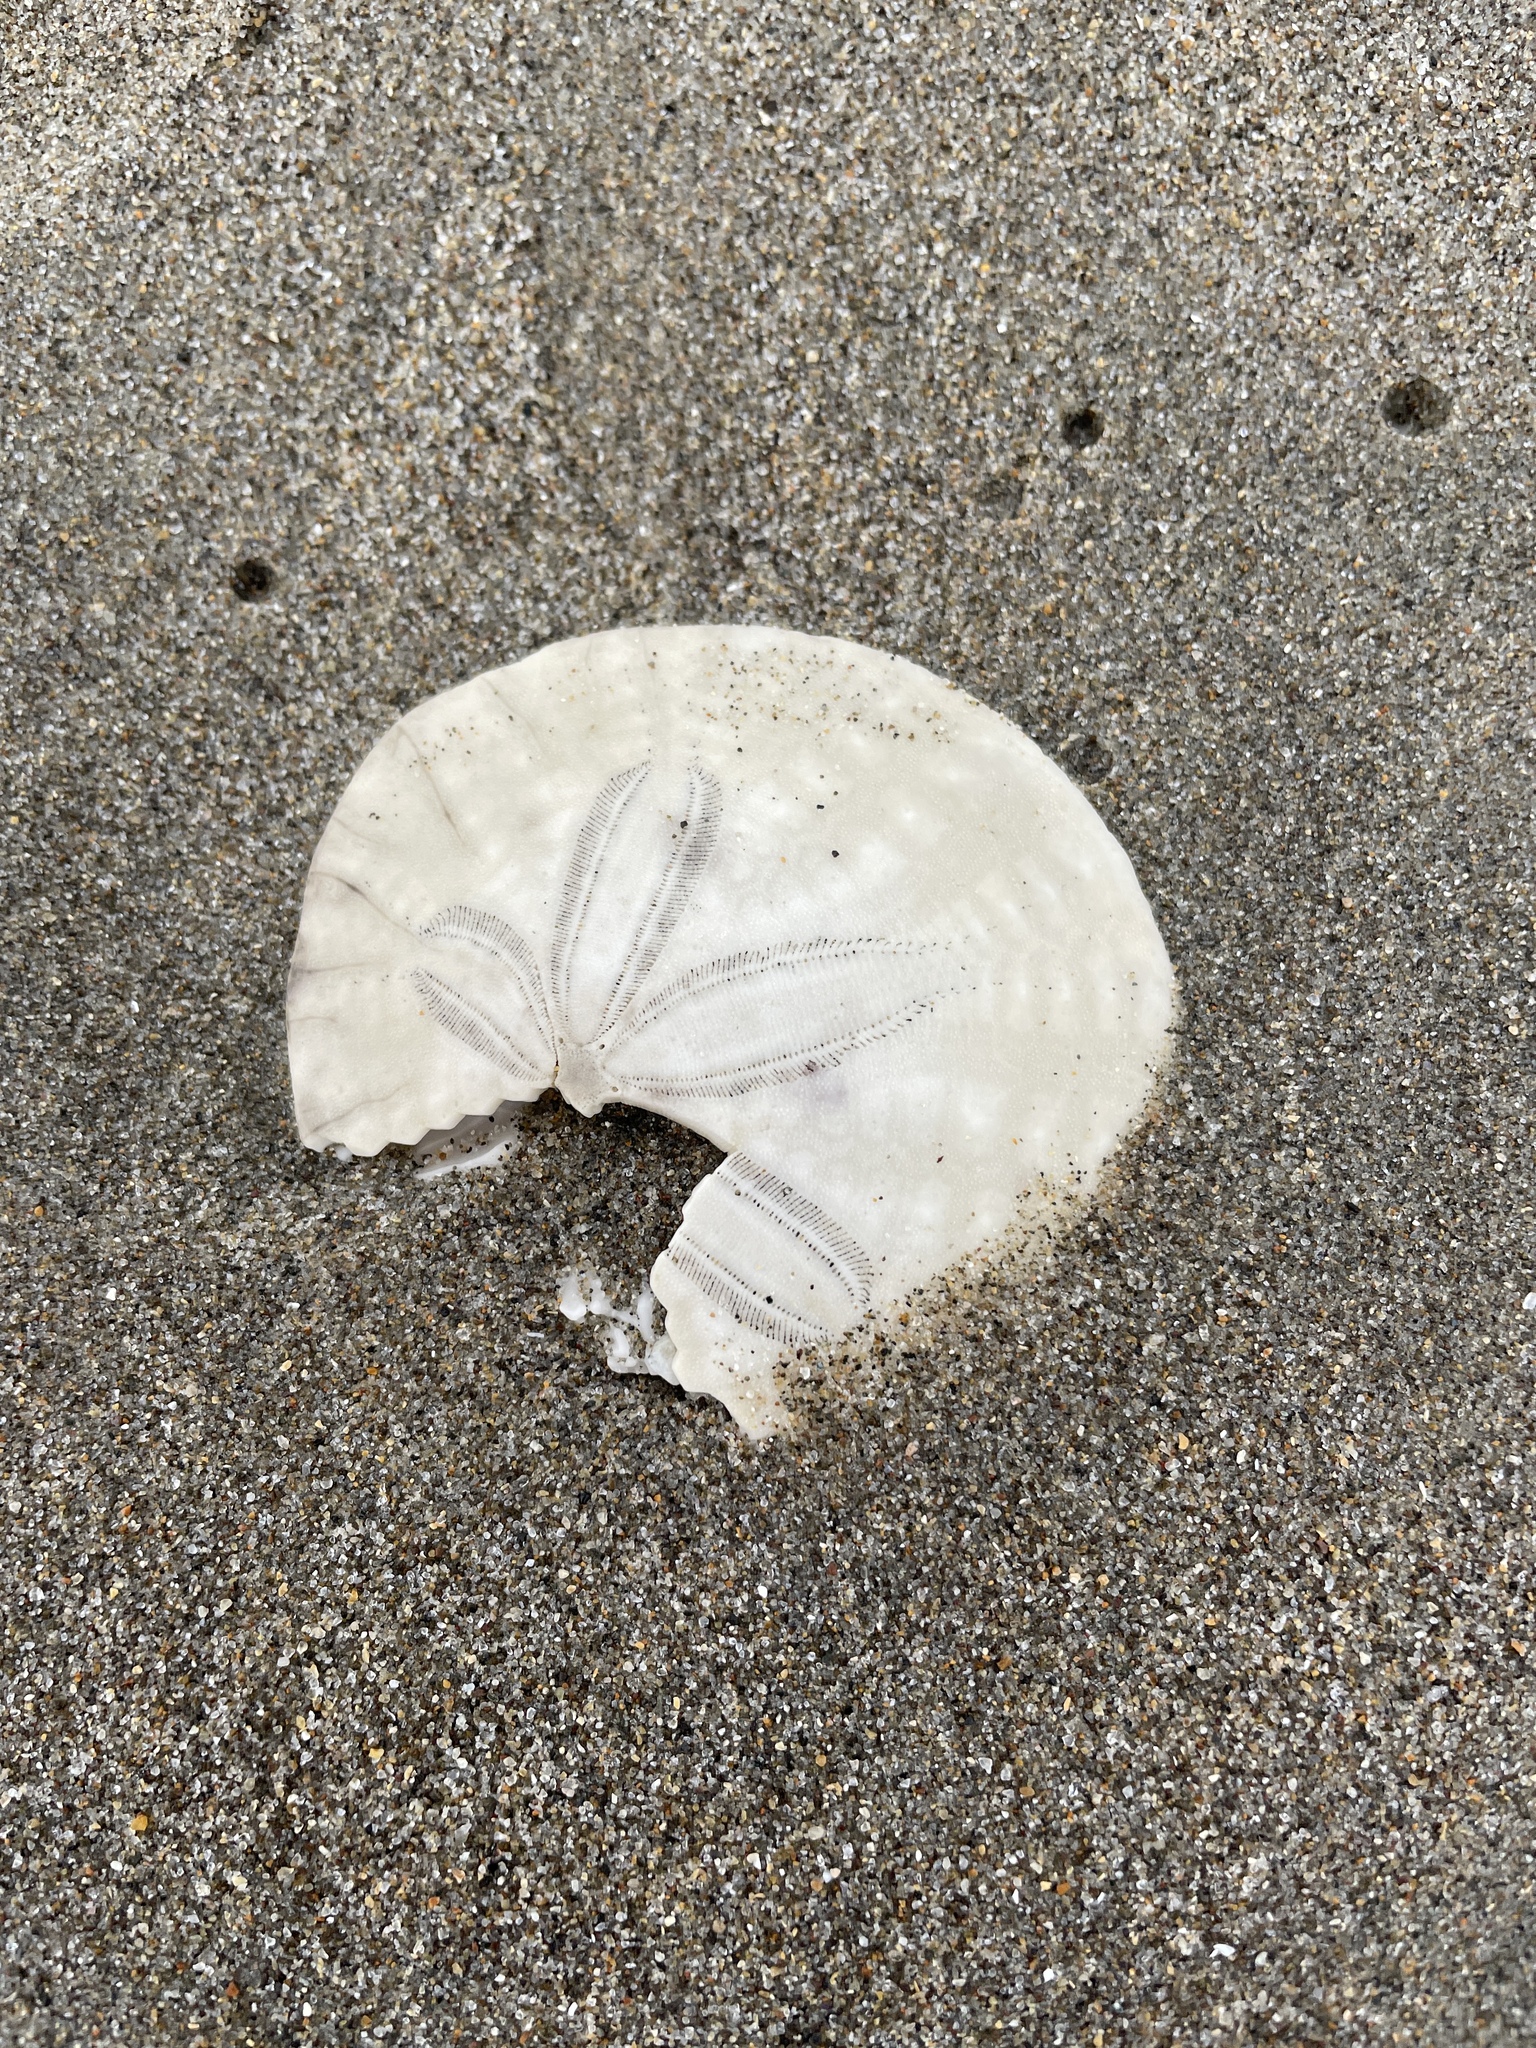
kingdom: Animalia
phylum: Echinodermata
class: Echinoidea
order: Echinolampadacea
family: Dendrasteridae
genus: Dendraster
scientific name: Dendraster excentricus
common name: Eccentric sand dollar sea urchin
